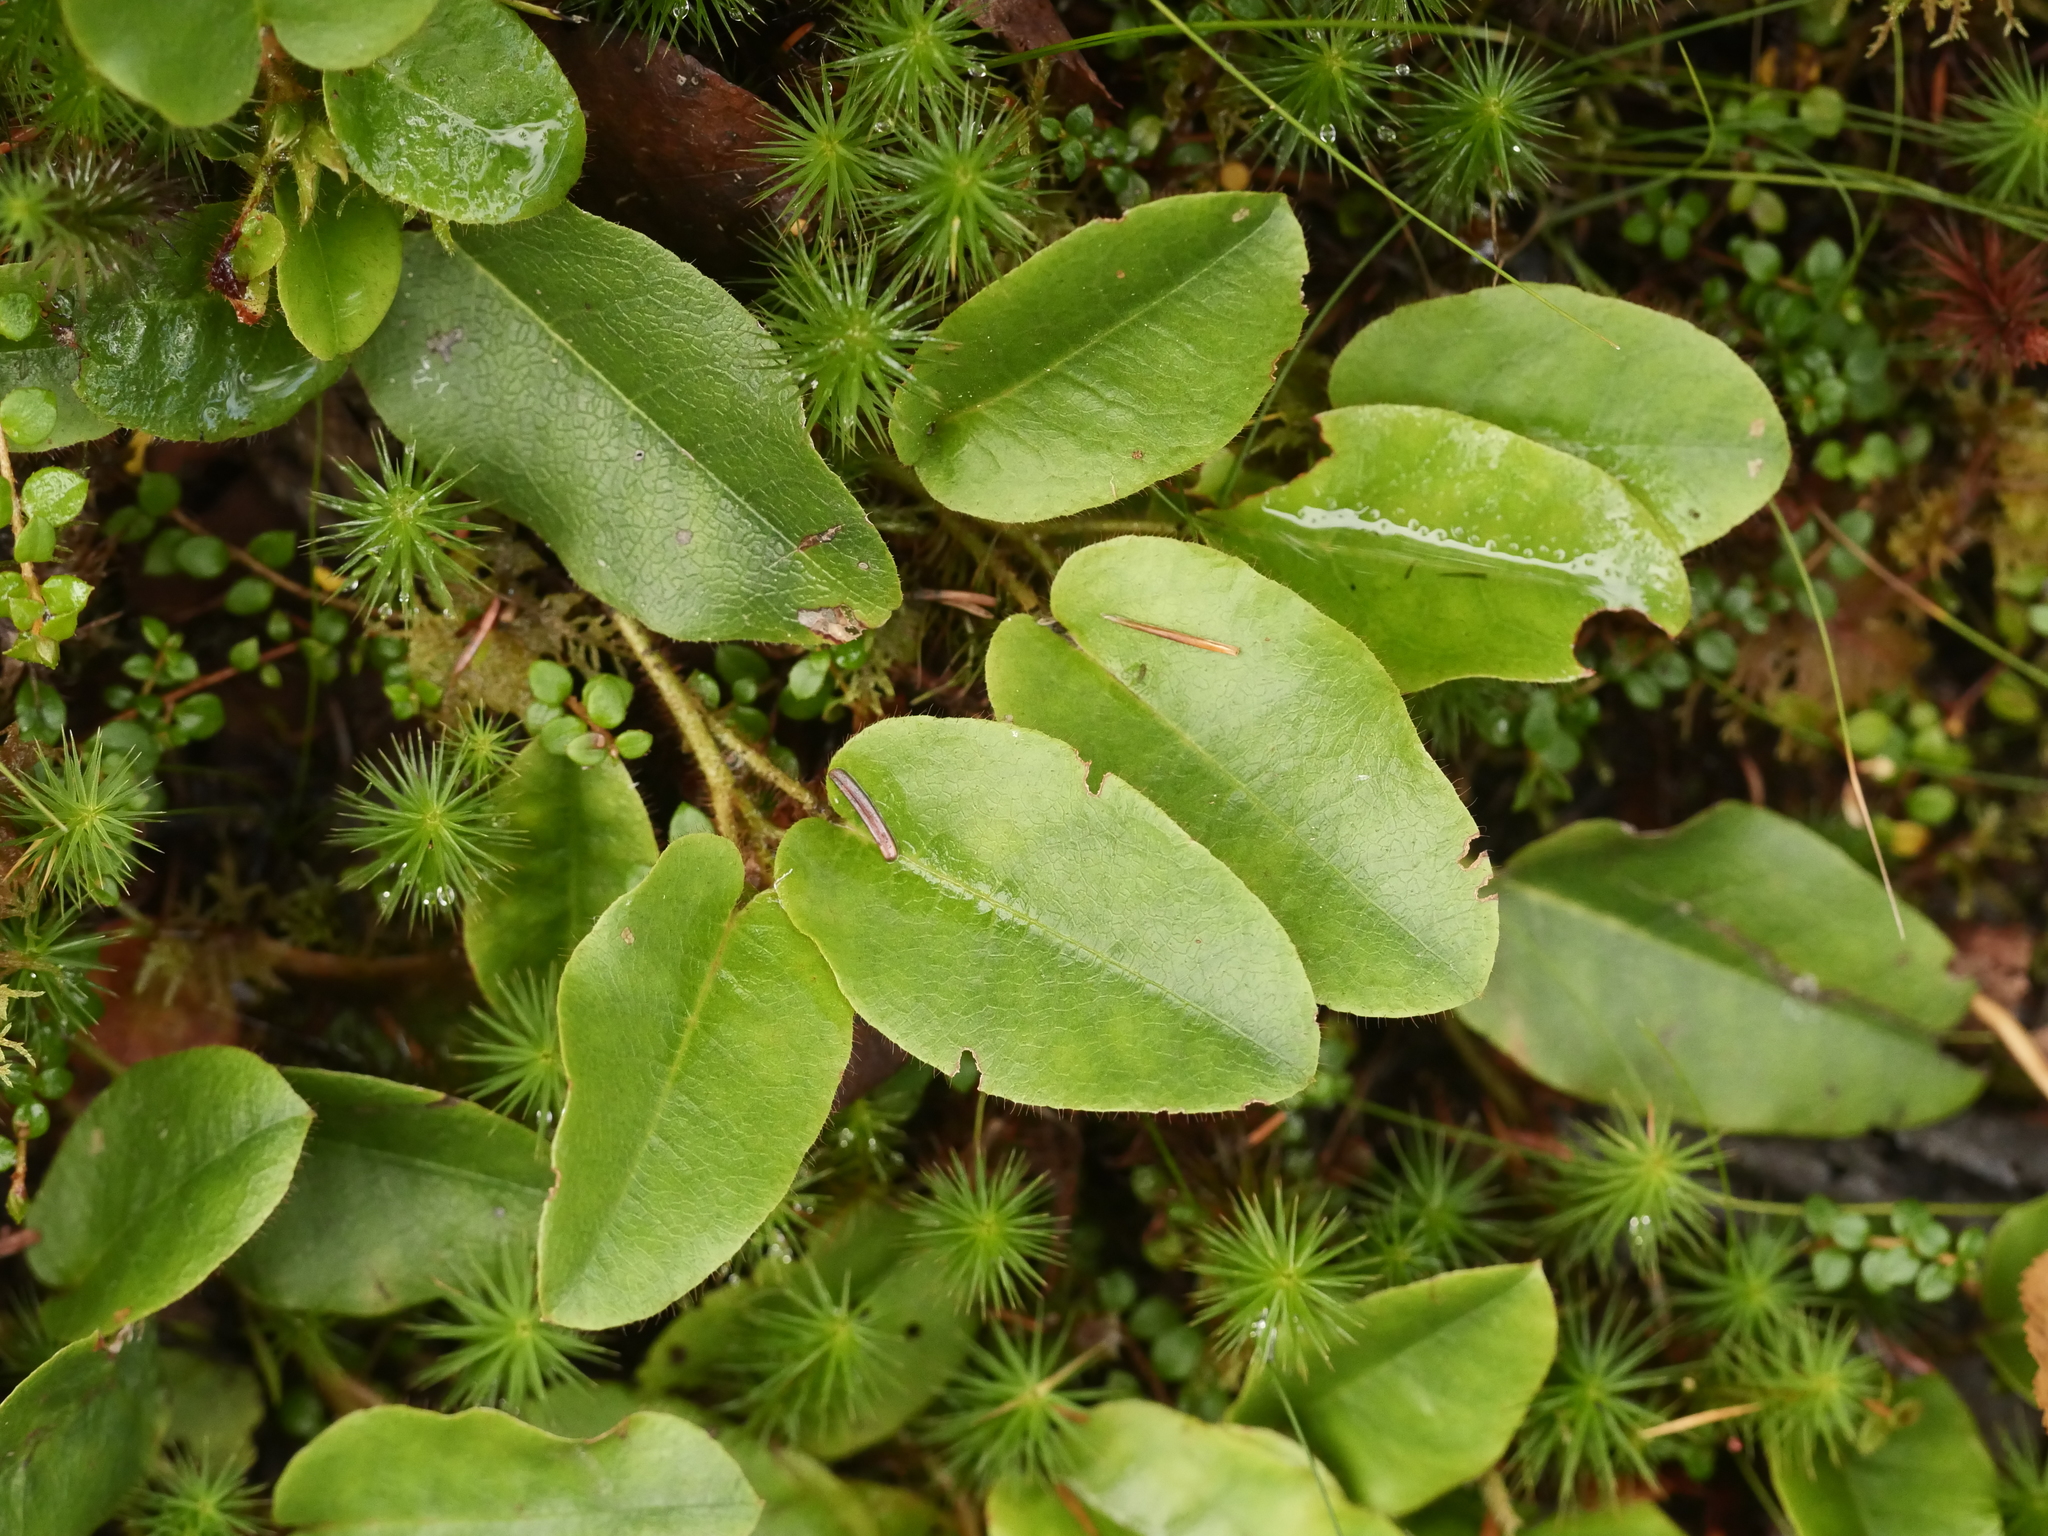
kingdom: Plantae
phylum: Tracheophyta
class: Magnoliopsida
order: Ericales
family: Ericaceae
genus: Epigaea
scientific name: Epigaea repens
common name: Gravelroot
